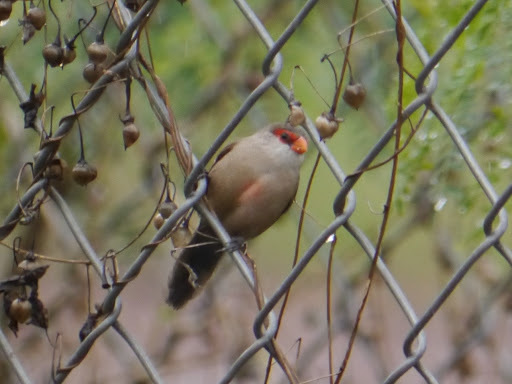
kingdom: Animalia
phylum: Chordata
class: Aves
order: Passeriformes
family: Estrildidae
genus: Estrilda
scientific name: Estrilda astrild
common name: Common waxbill
